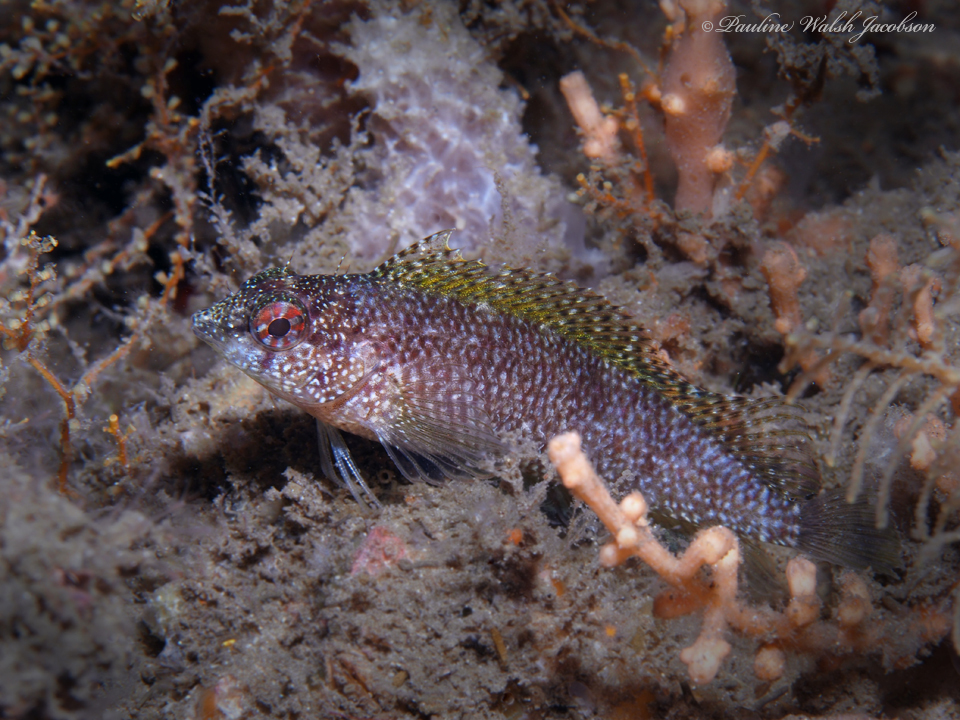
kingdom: Animalia
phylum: Chordata
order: Perciformes
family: Labrisomidae
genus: Malacoctenus
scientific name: Malacoctenus macropus
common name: Rosy blenny
